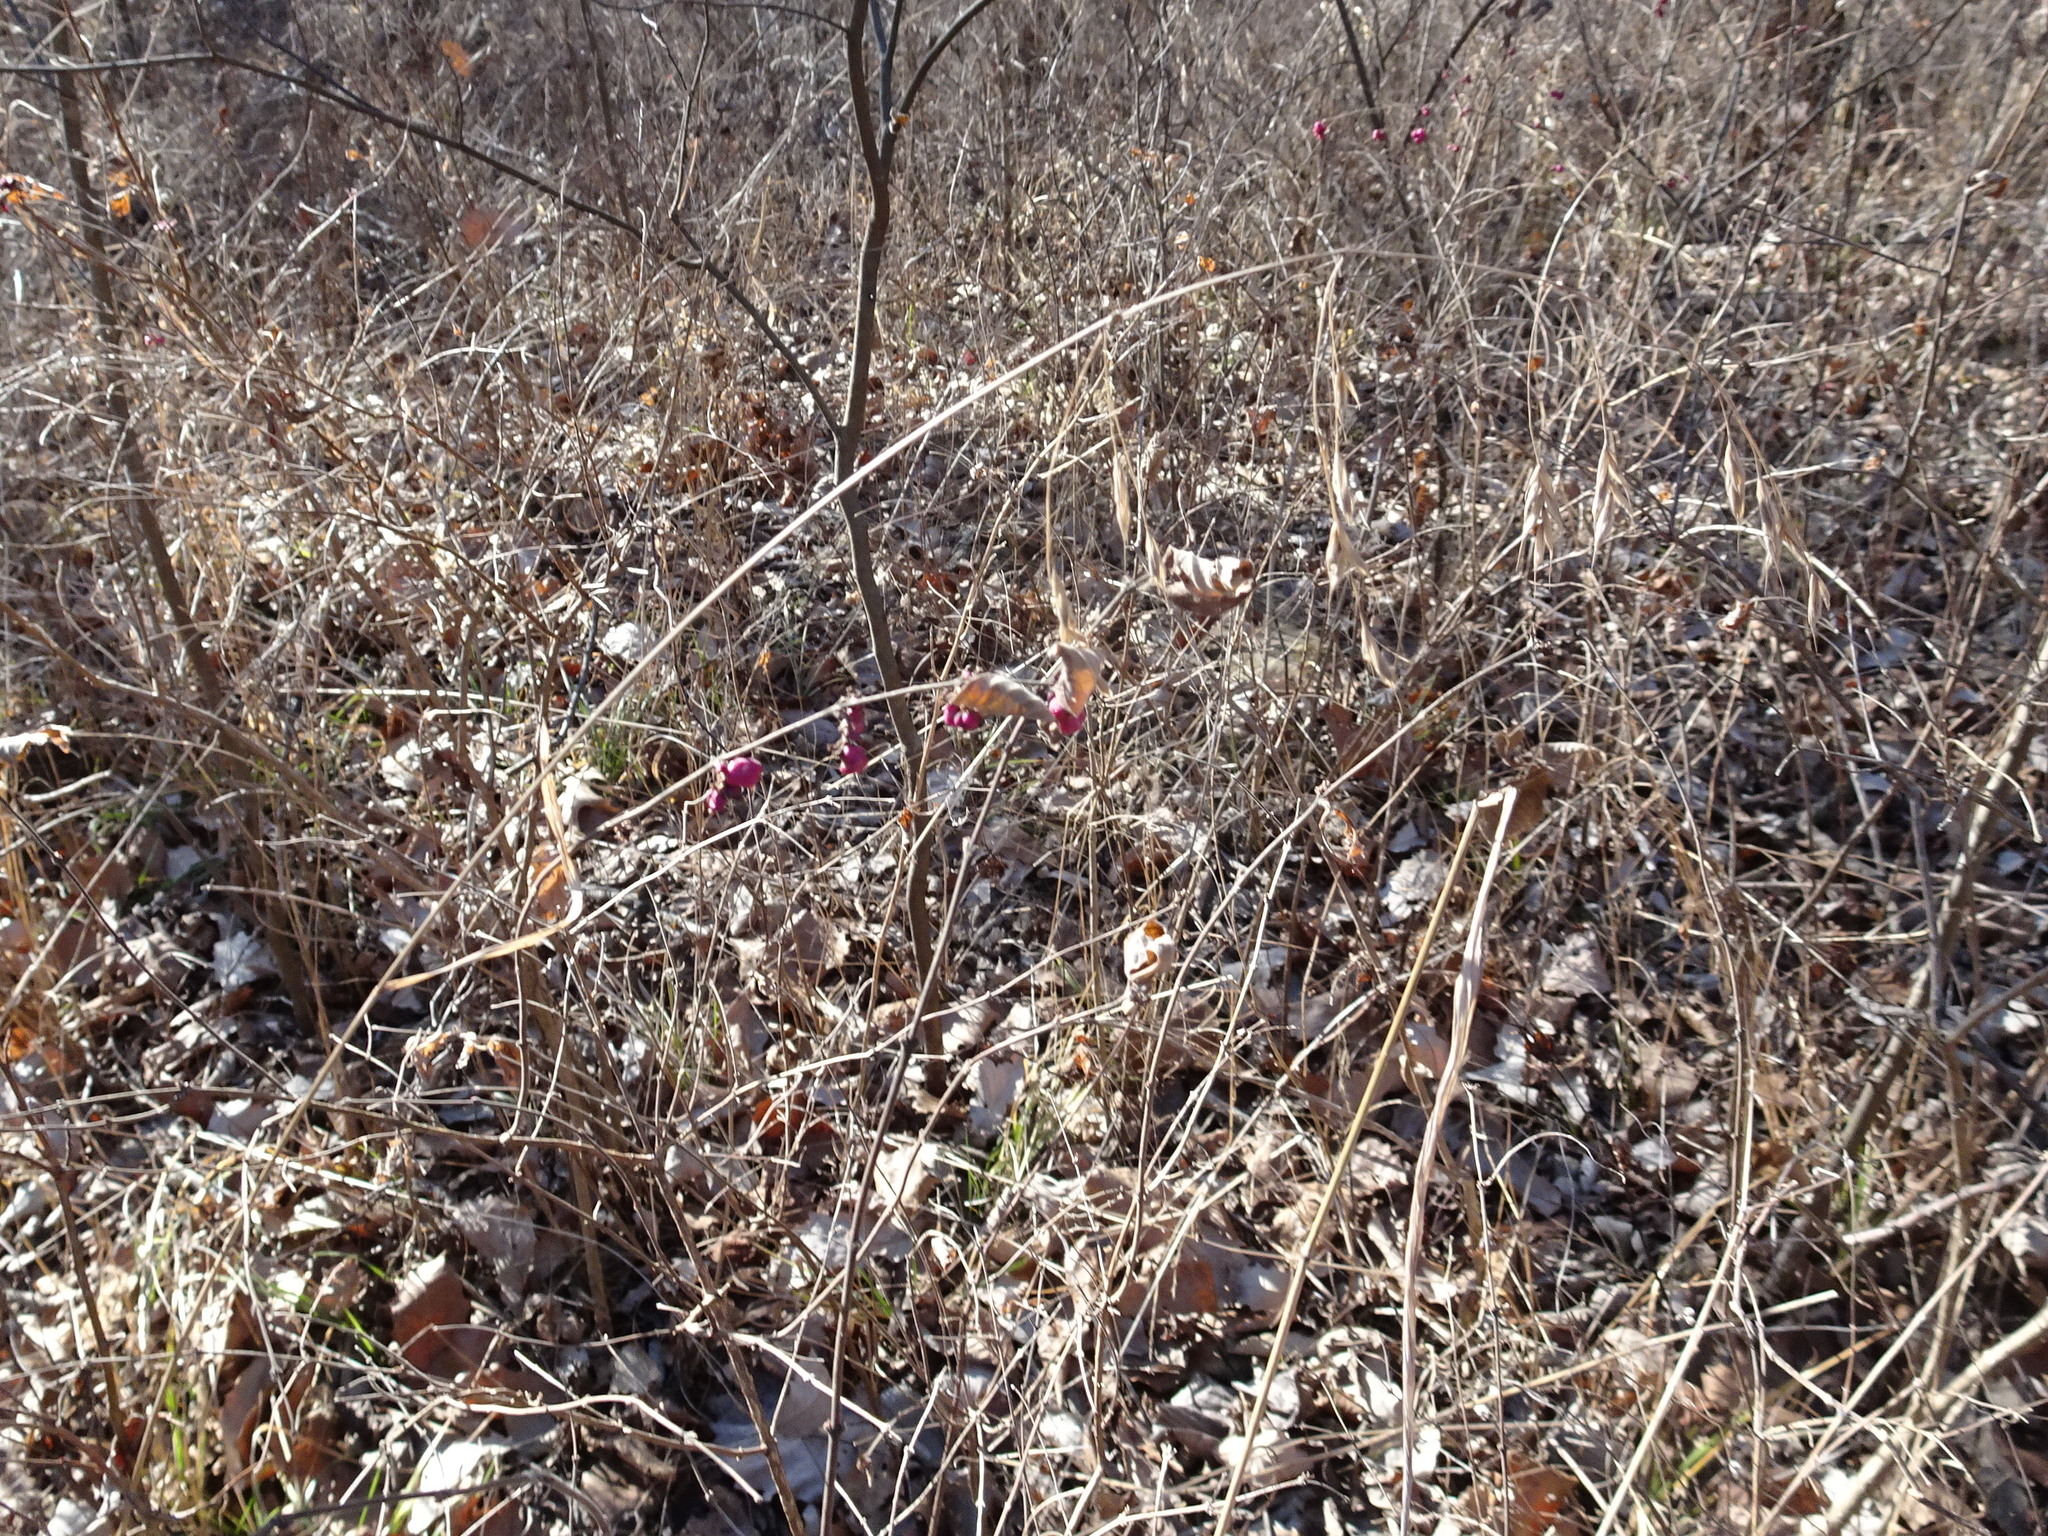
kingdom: Plantae
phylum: Tracheophyta
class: Liliopsida
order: Poales
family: Poaceae
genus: Bromus
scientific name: Bromus pubescens
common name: Hairy wood brome grass
